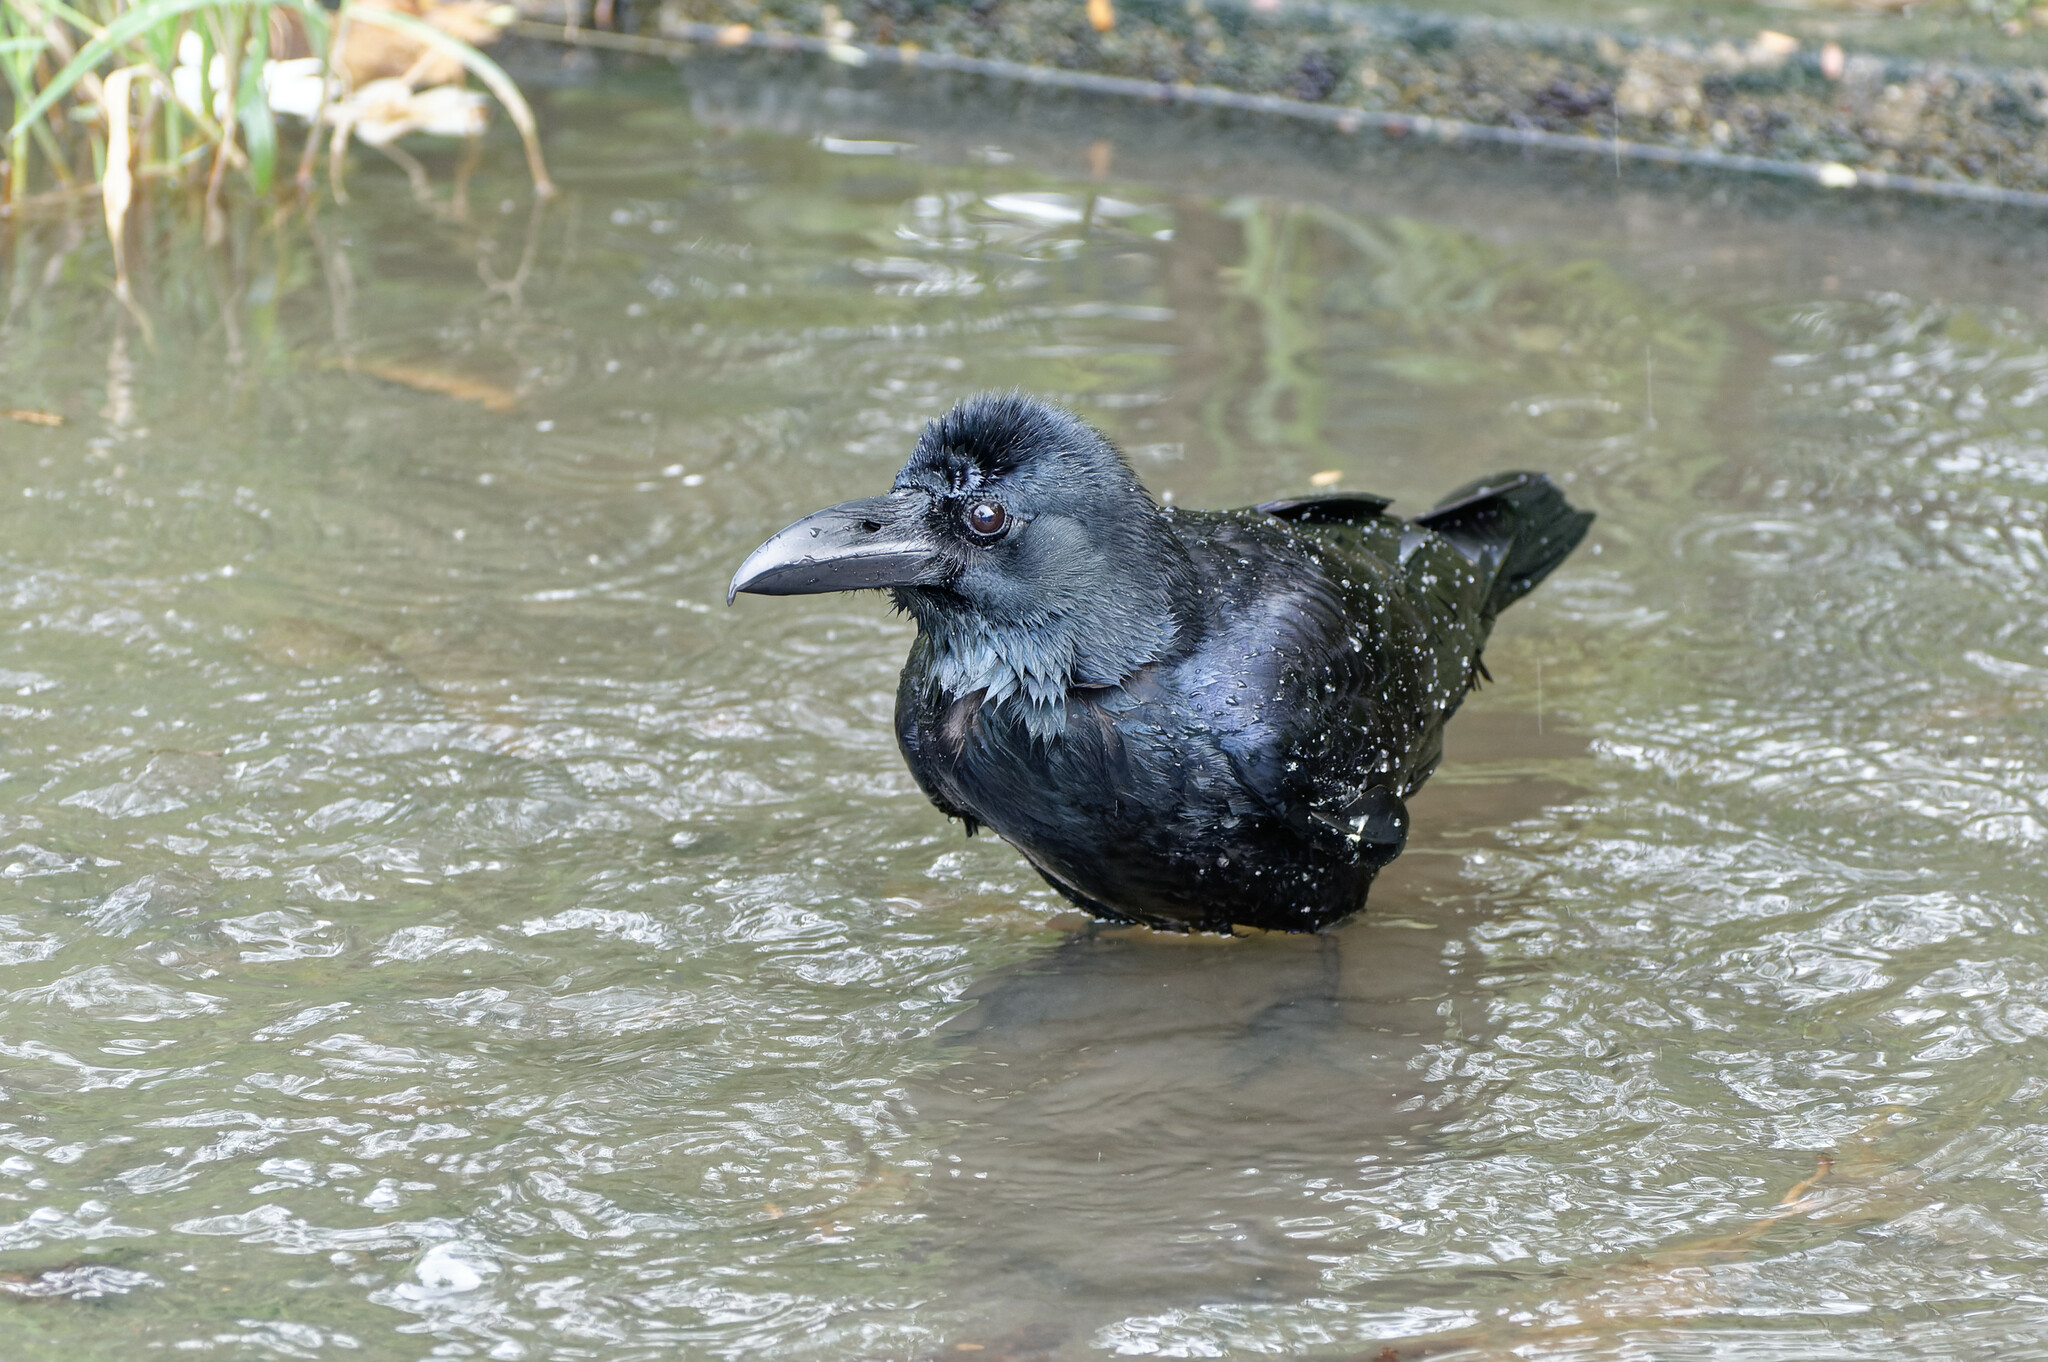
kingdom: Animalia
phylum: Chordata
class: Aves
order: Passeriformes
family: Corvidae
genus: Corvus
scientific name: Corvus macrorhynchos
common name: Large-billed crow
